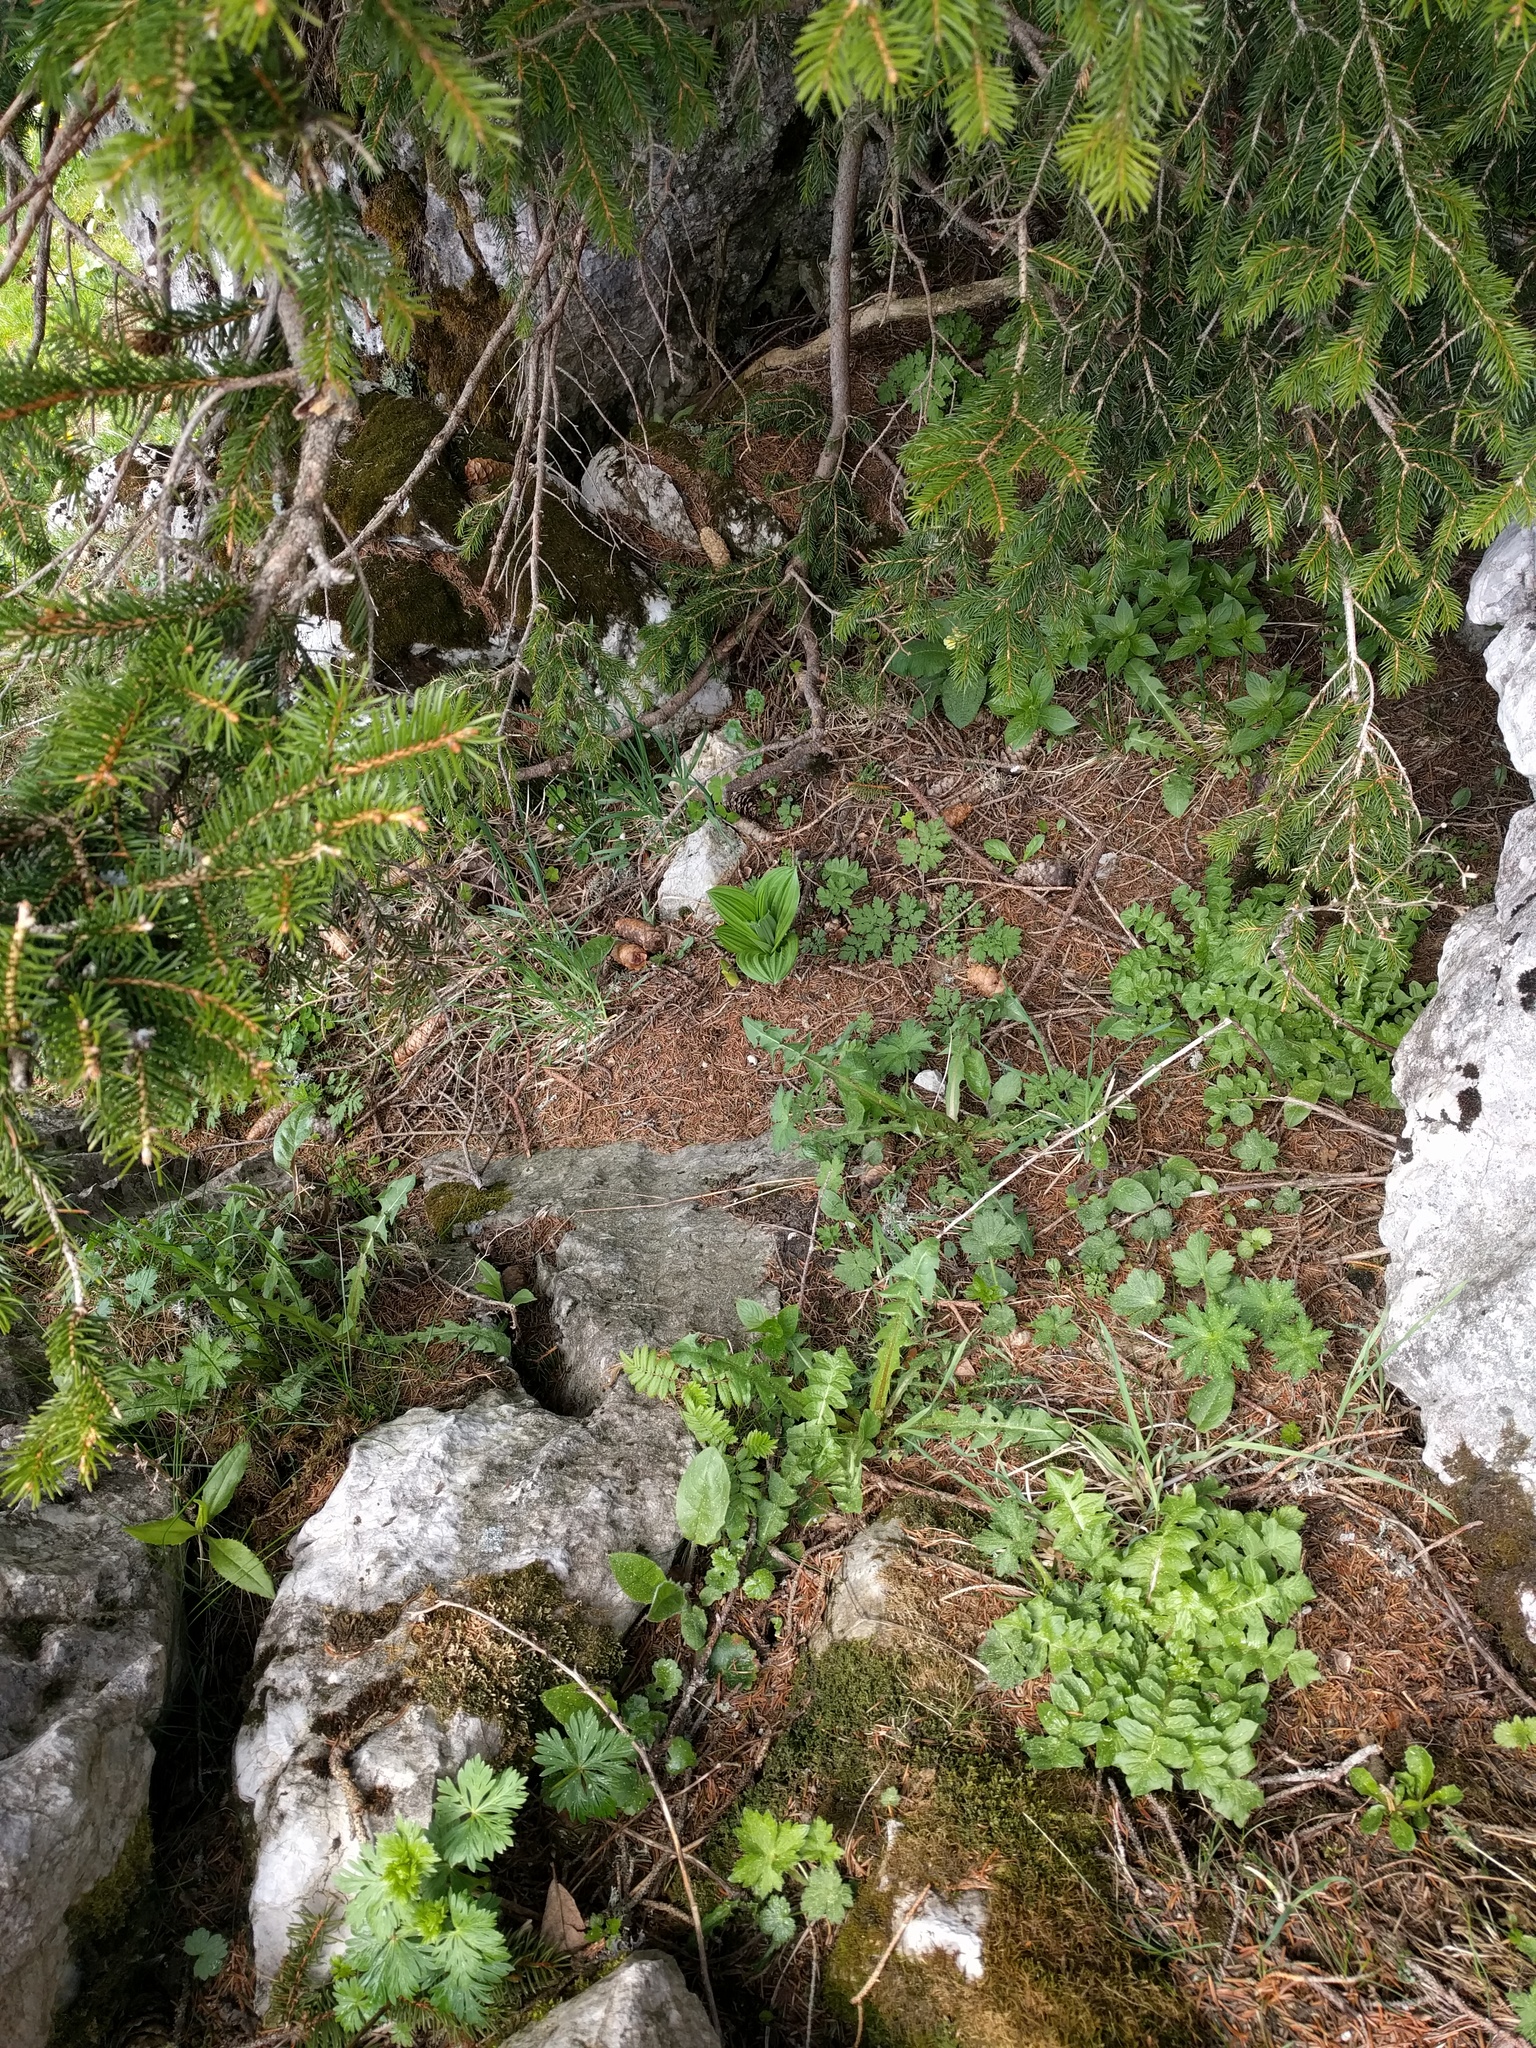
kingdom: Plantae
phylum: Tracheophyta
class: Magnoliopsida
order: Asterales
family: Asteraceae
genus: Aposeris
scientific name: Aposeris foetida
